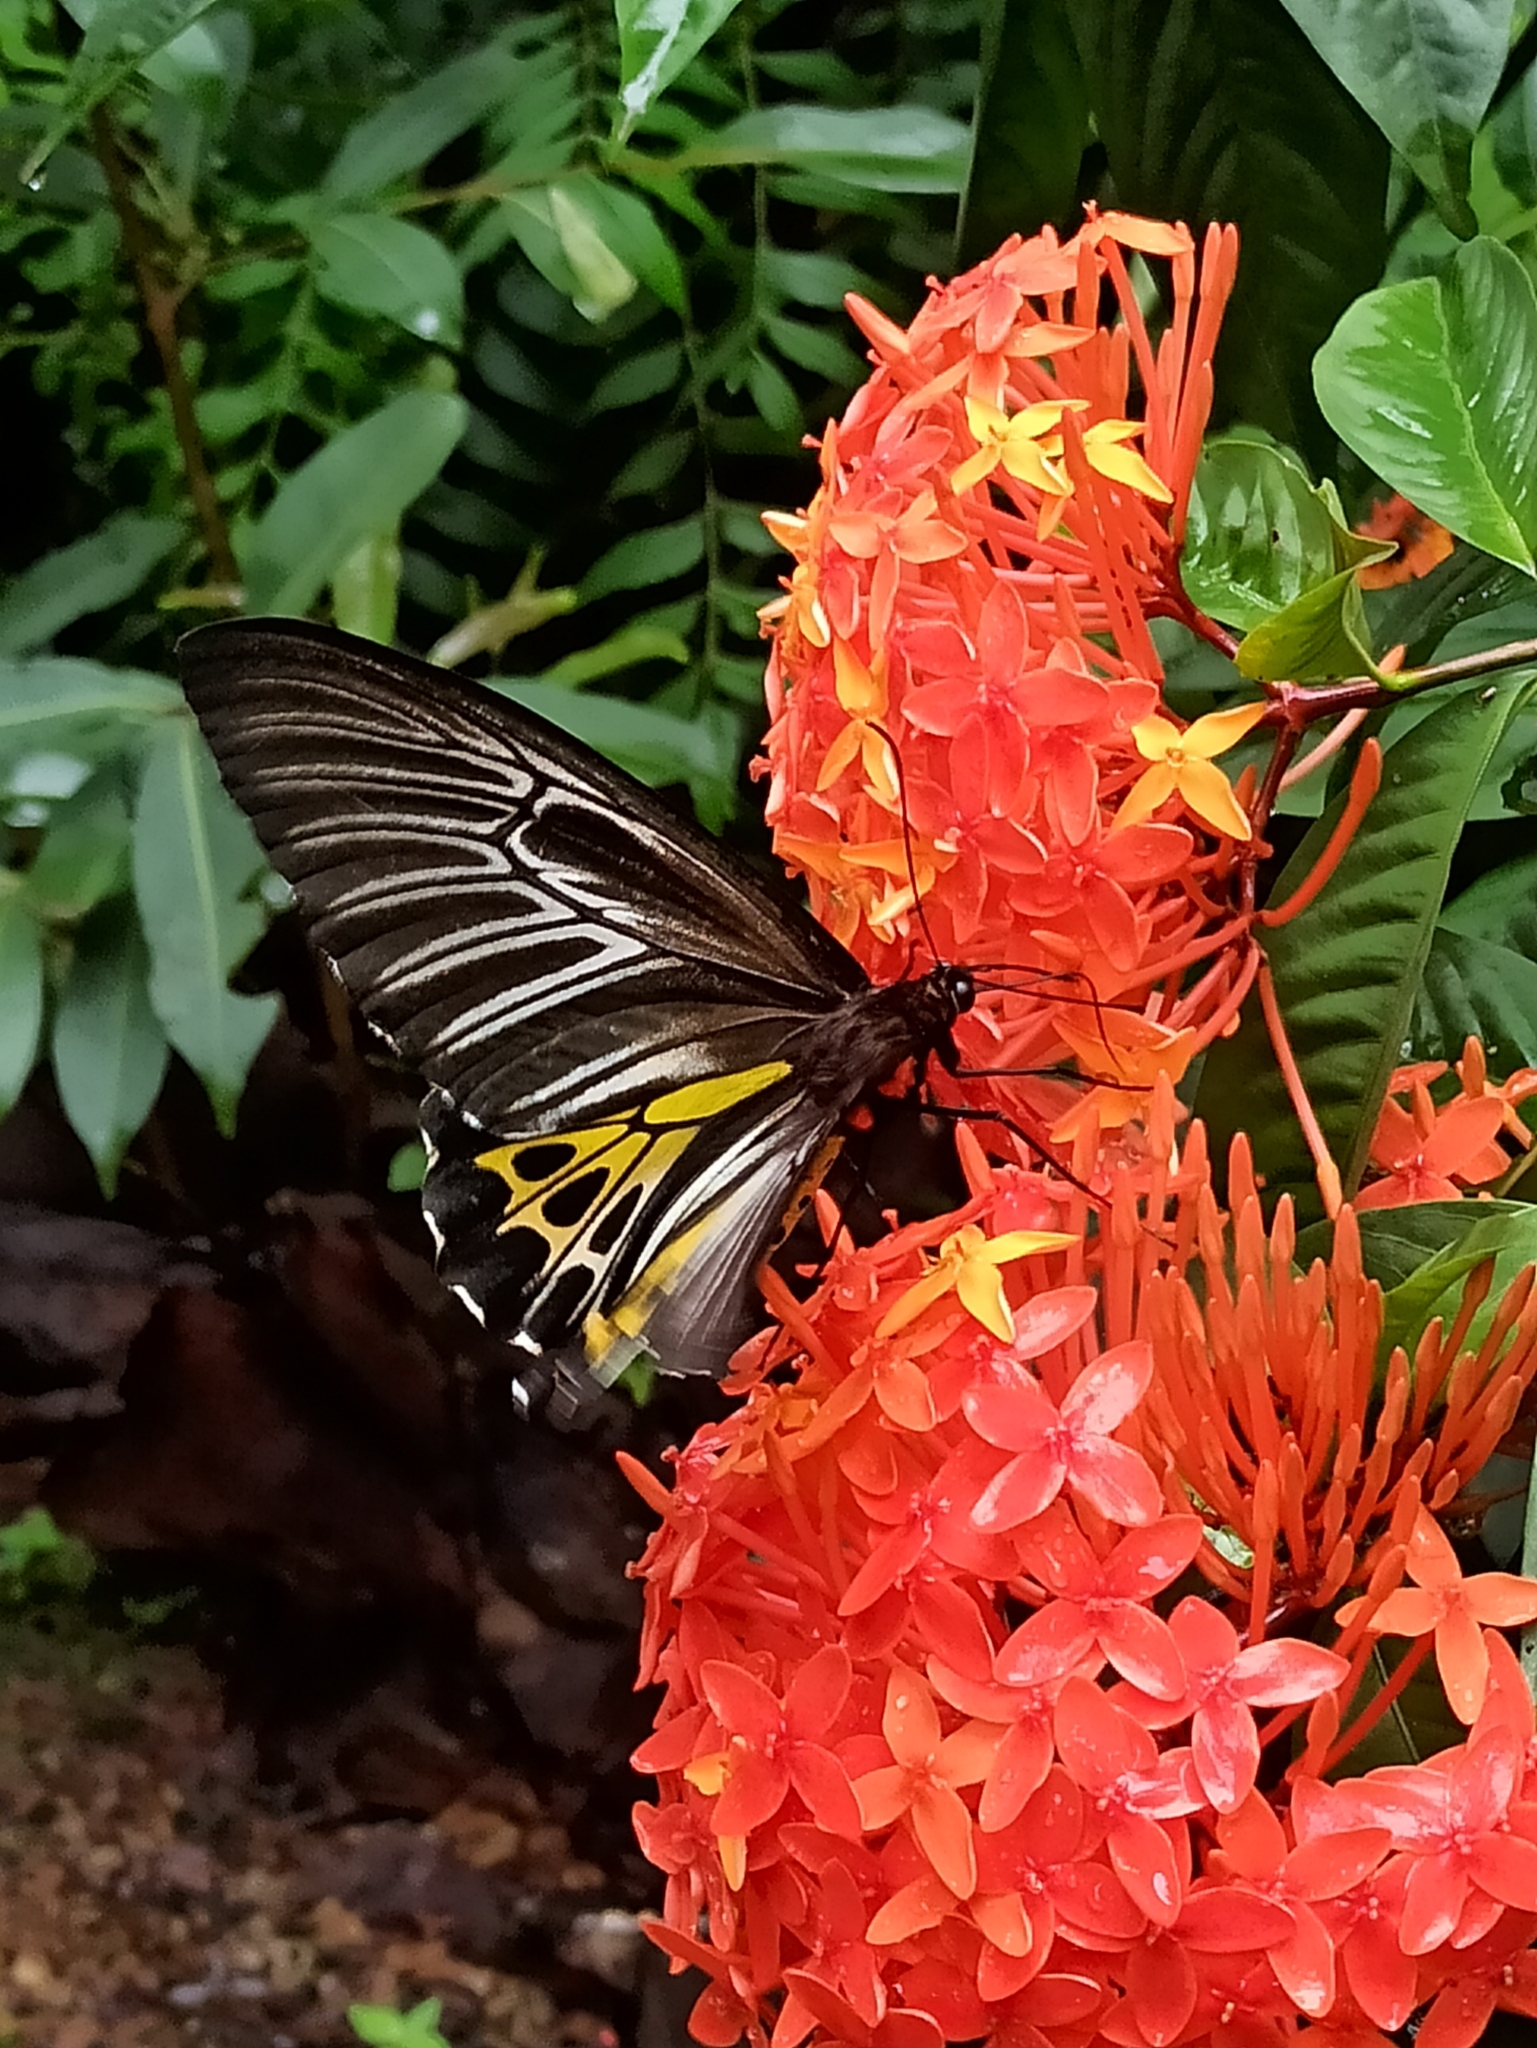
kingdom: Animalia
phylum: Arthropoda
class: Insecta
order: Lepidoptera
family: Papilionidae
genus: Troides
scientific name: Troides minos
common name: Malabar birdwing
